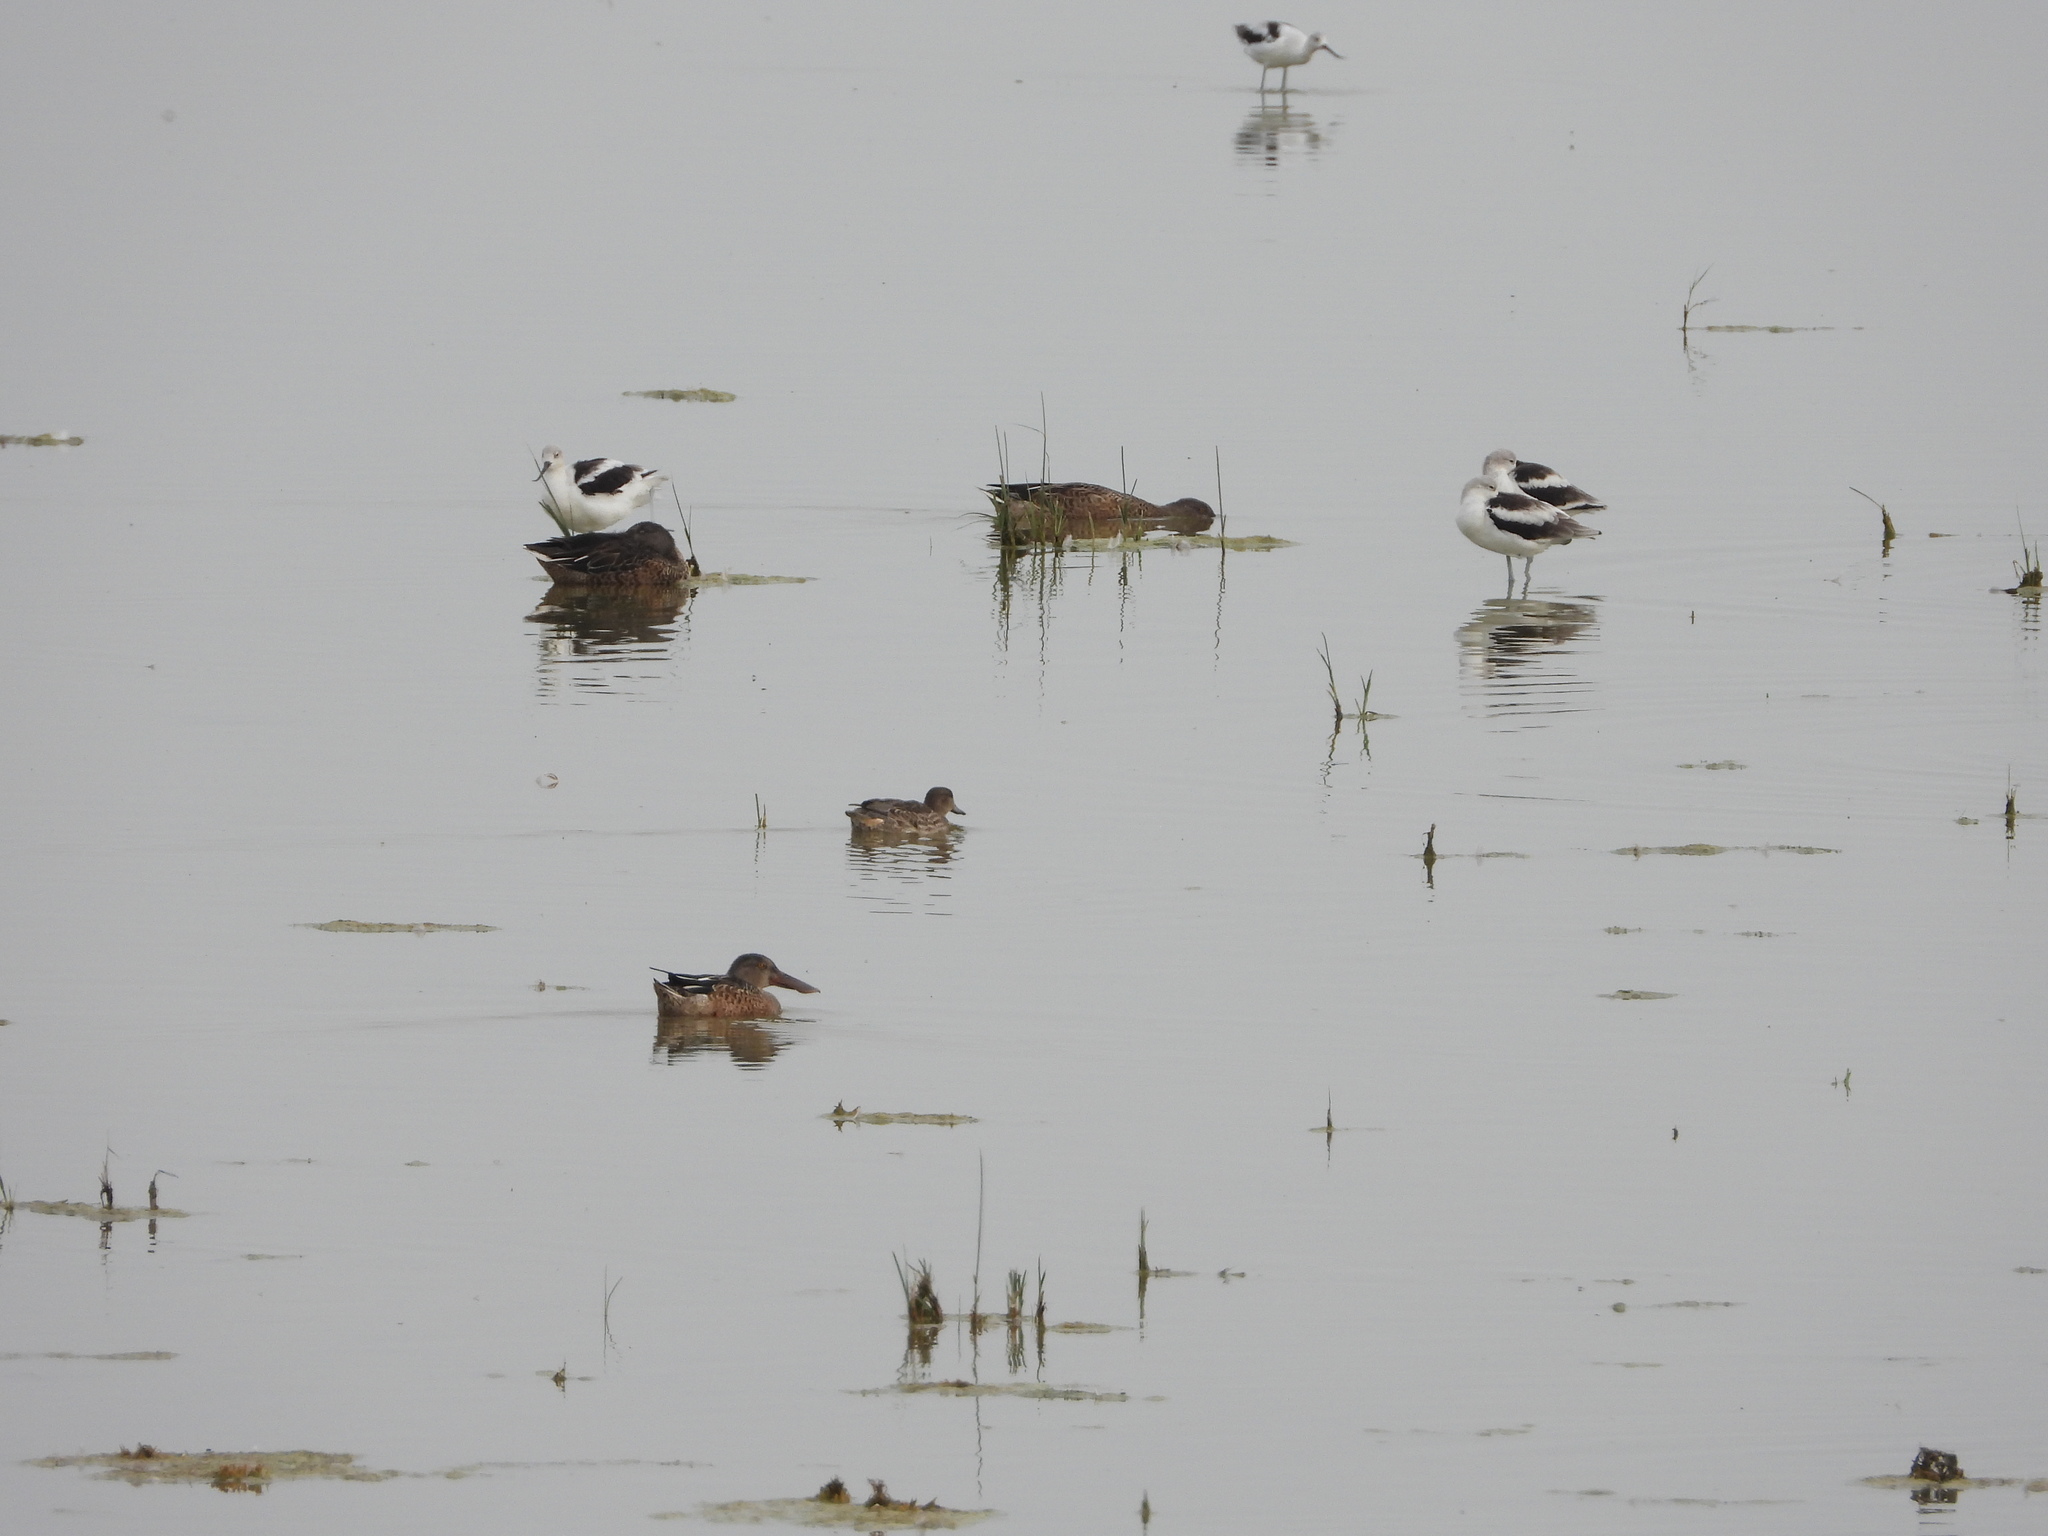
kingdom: Animalia
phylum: Chordata
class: Aves
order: Anseriformes
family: Anatidae
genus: Anas
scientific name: Anas crecca
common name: Eurasian teal
